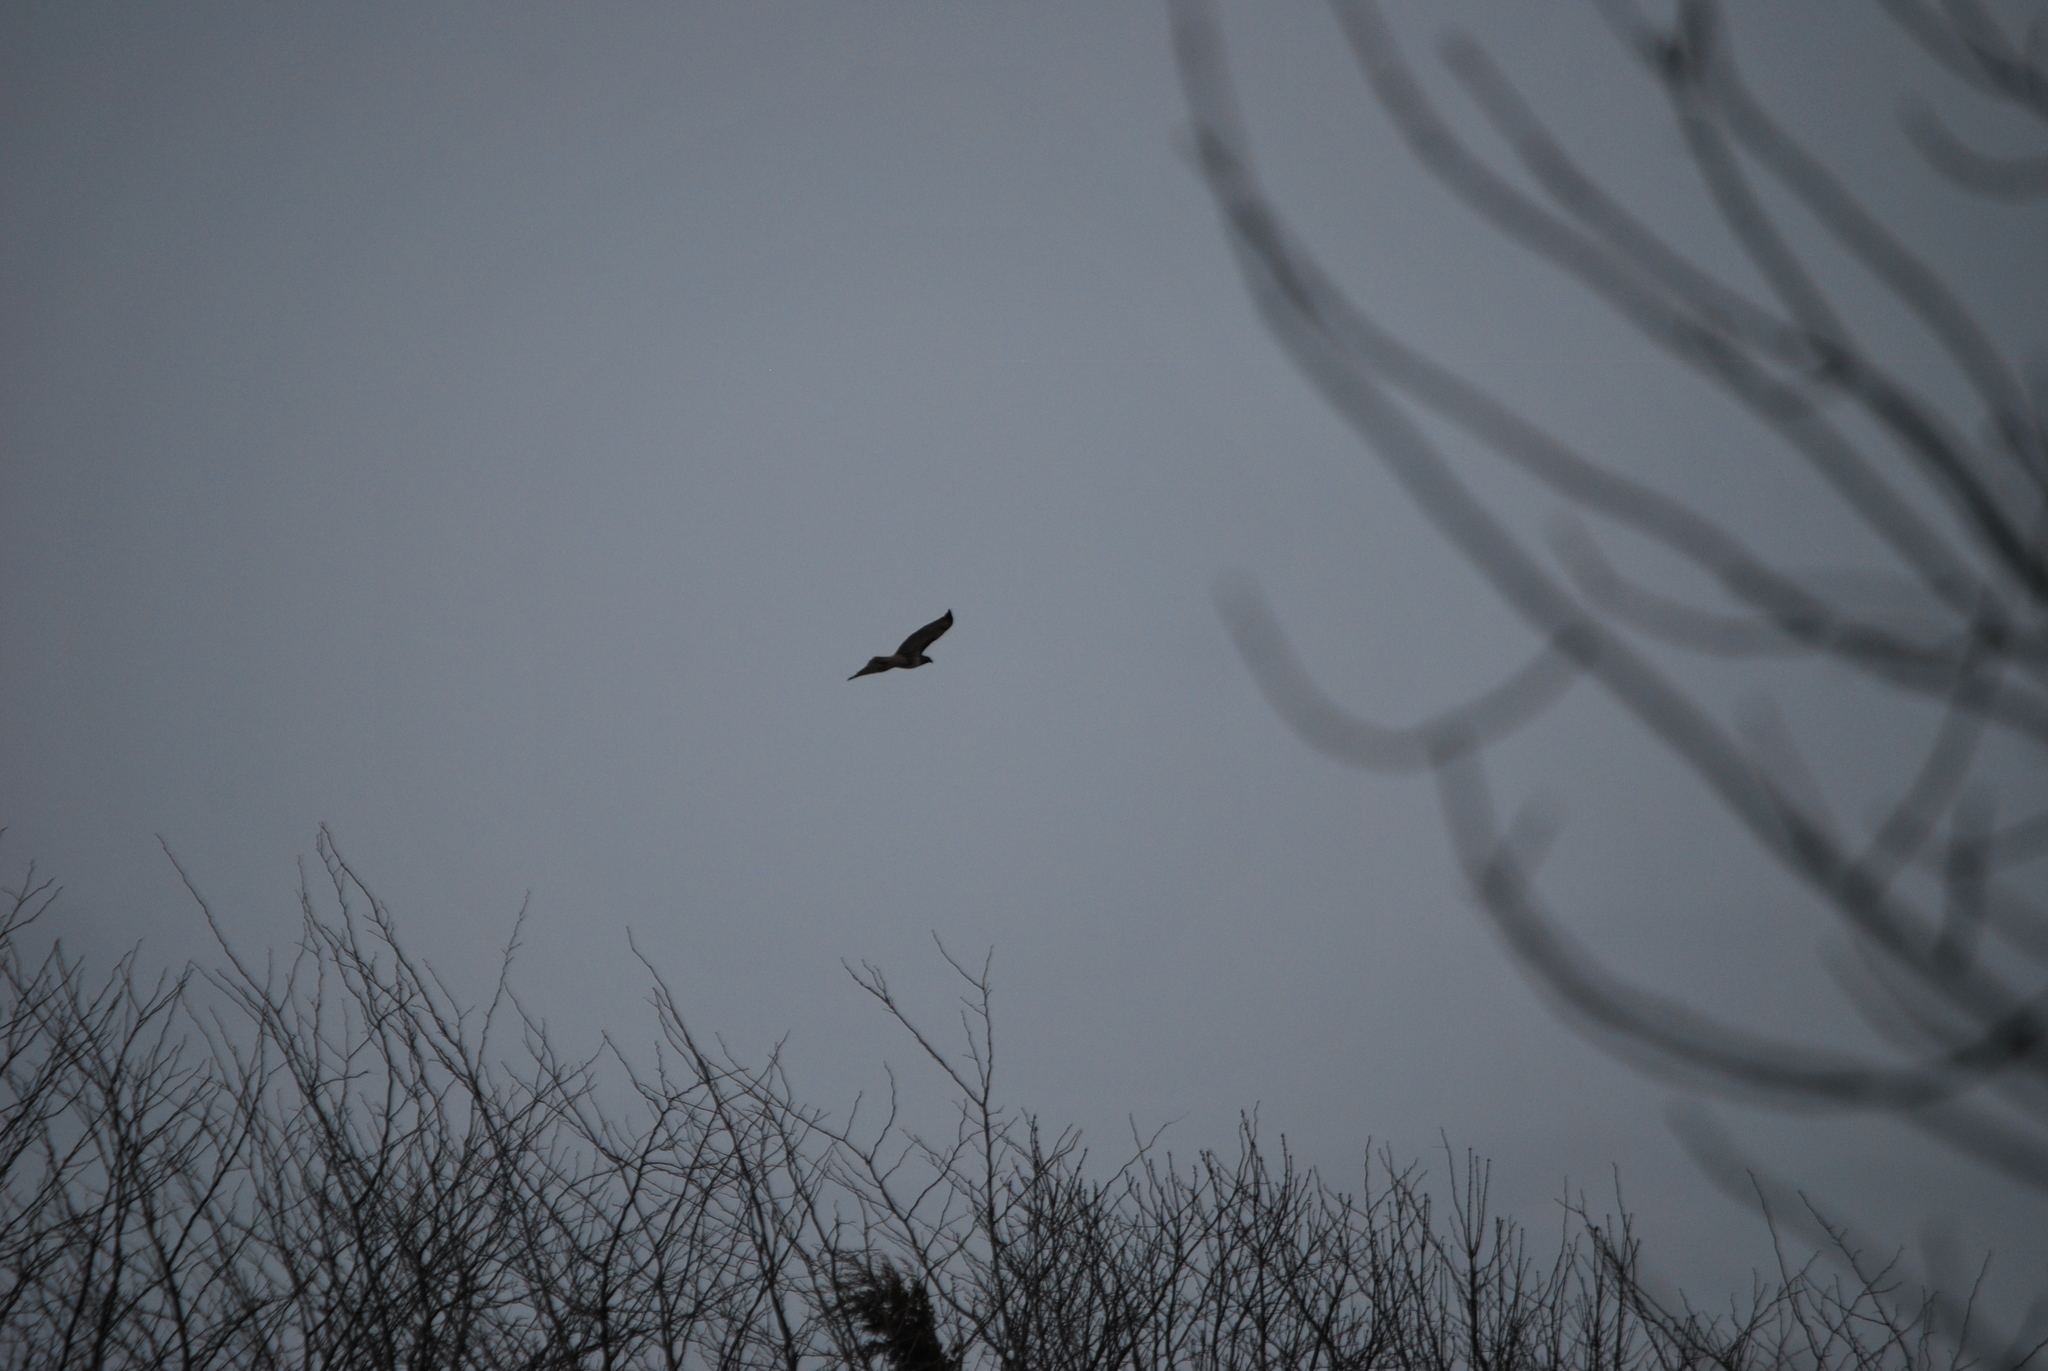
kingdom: Animalia
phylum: Chordata
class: Aves
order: Accipitriformes
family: Accipitridae
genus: Buteo
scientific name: Buteo jamaicensis
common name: Red-tailed hawk
